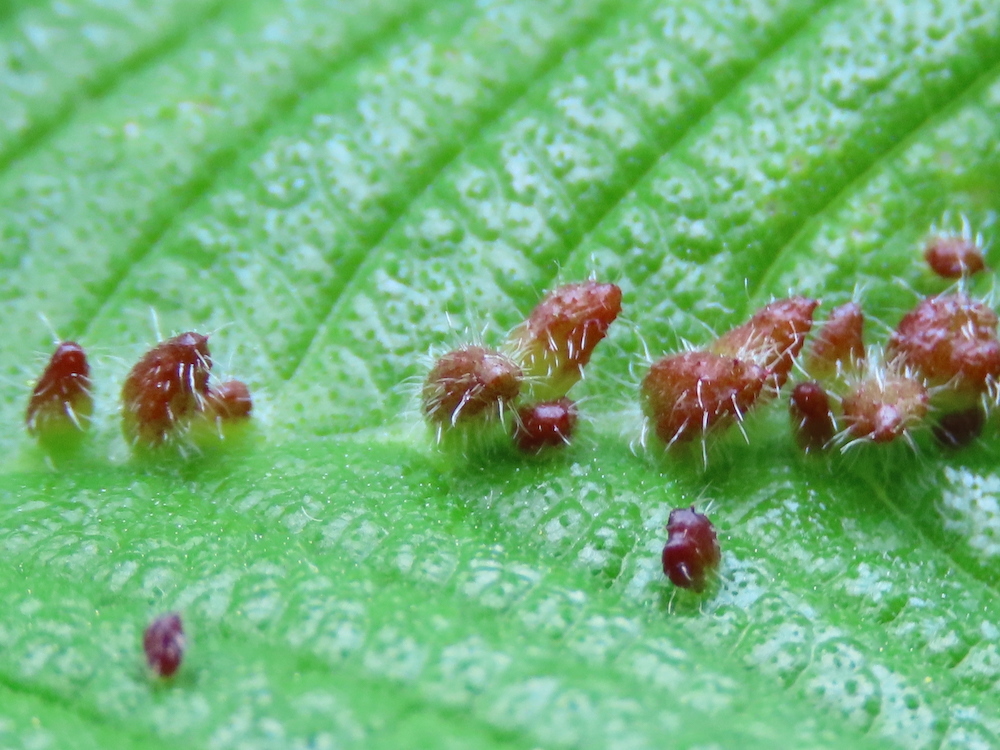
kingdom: Animalia
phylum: Arthropoda
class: Arachnida
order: Trombidiformes
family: Eriophyidae
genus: Aceria
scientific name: Aceria
